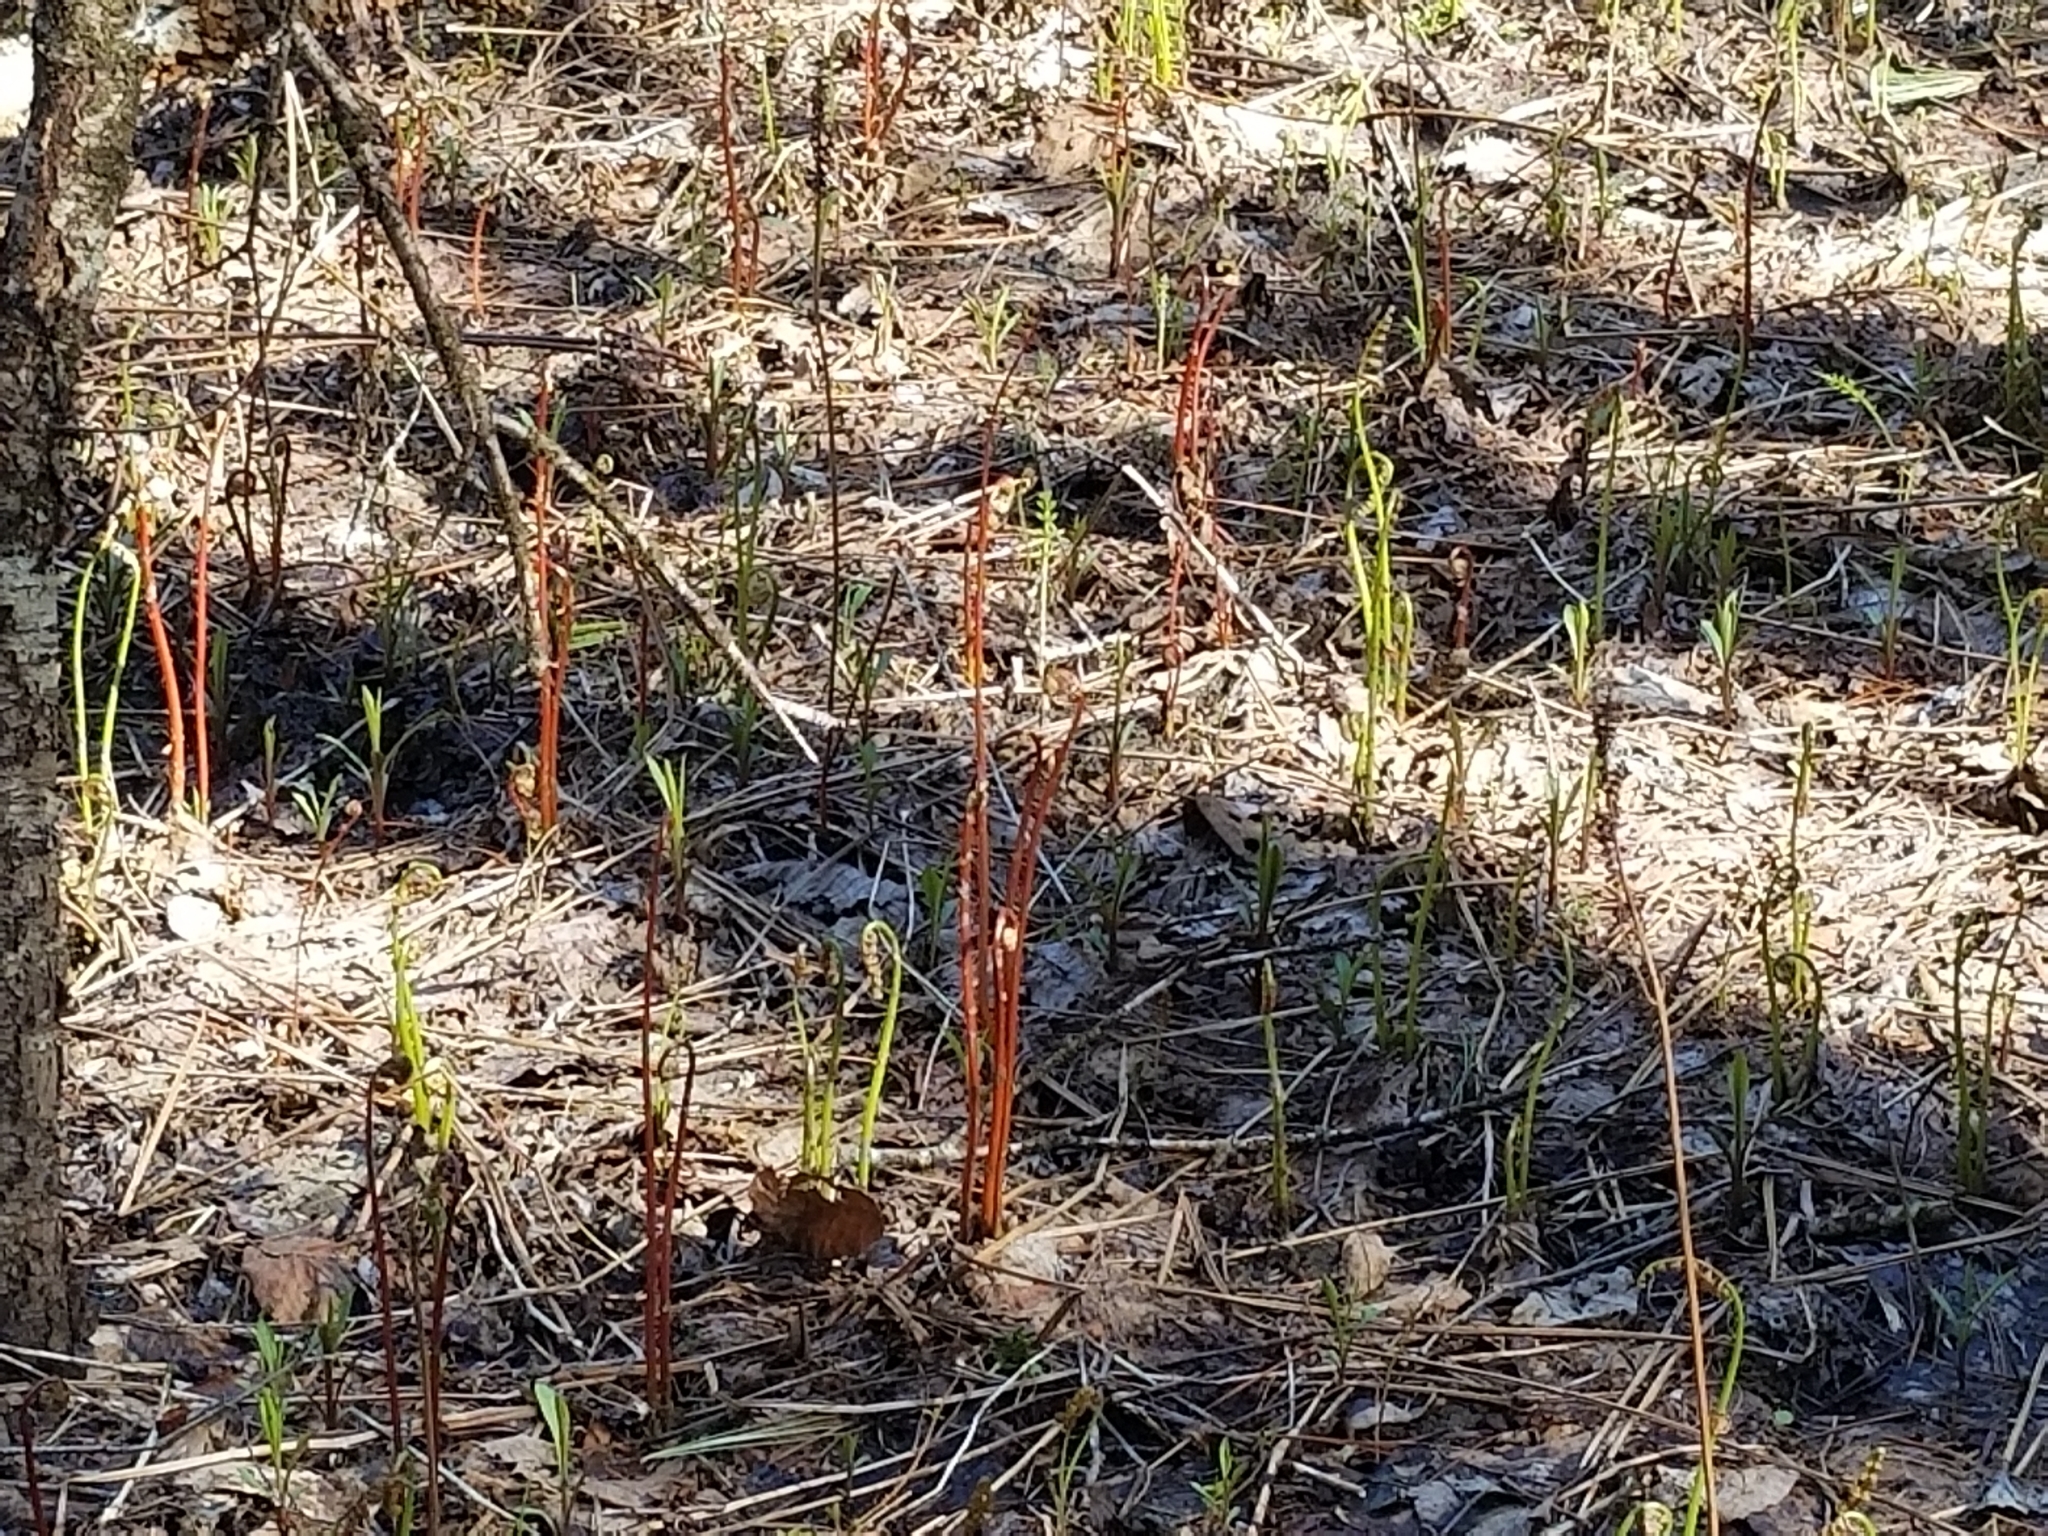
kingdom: Plantae
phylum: Tracheophyta
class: Polypodiopsida
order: Polypodiales
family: Onocleaceae
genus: Onoclea
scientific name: Onoclea sensibilis
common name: Sensitive fern
